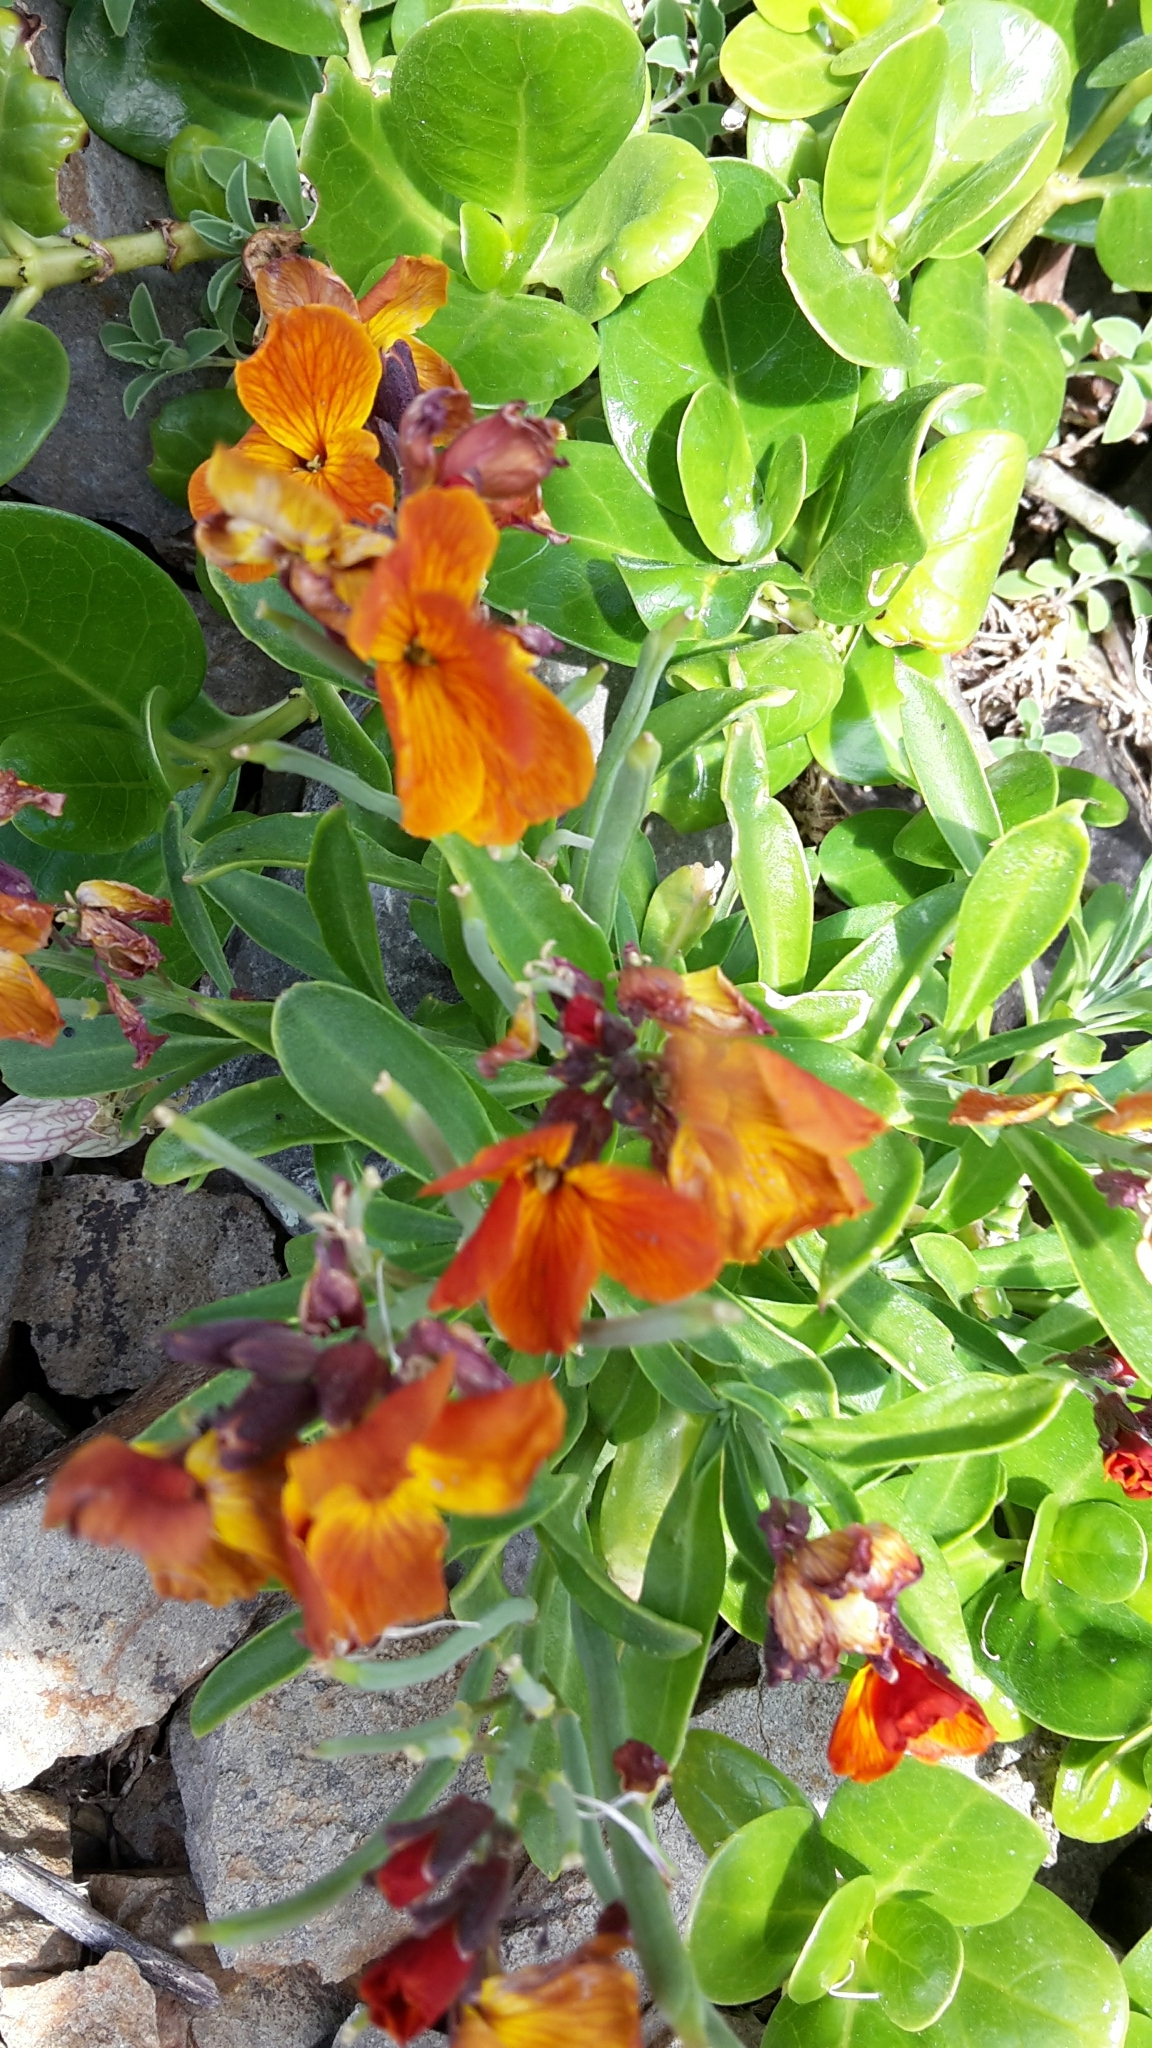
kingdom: Plantae
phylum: Tracheophyta
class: Magnoliopsida
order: Brassicales
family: Brassicaceae
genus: Erysimum
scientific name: Erysimum cheiri
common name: Wallflower
